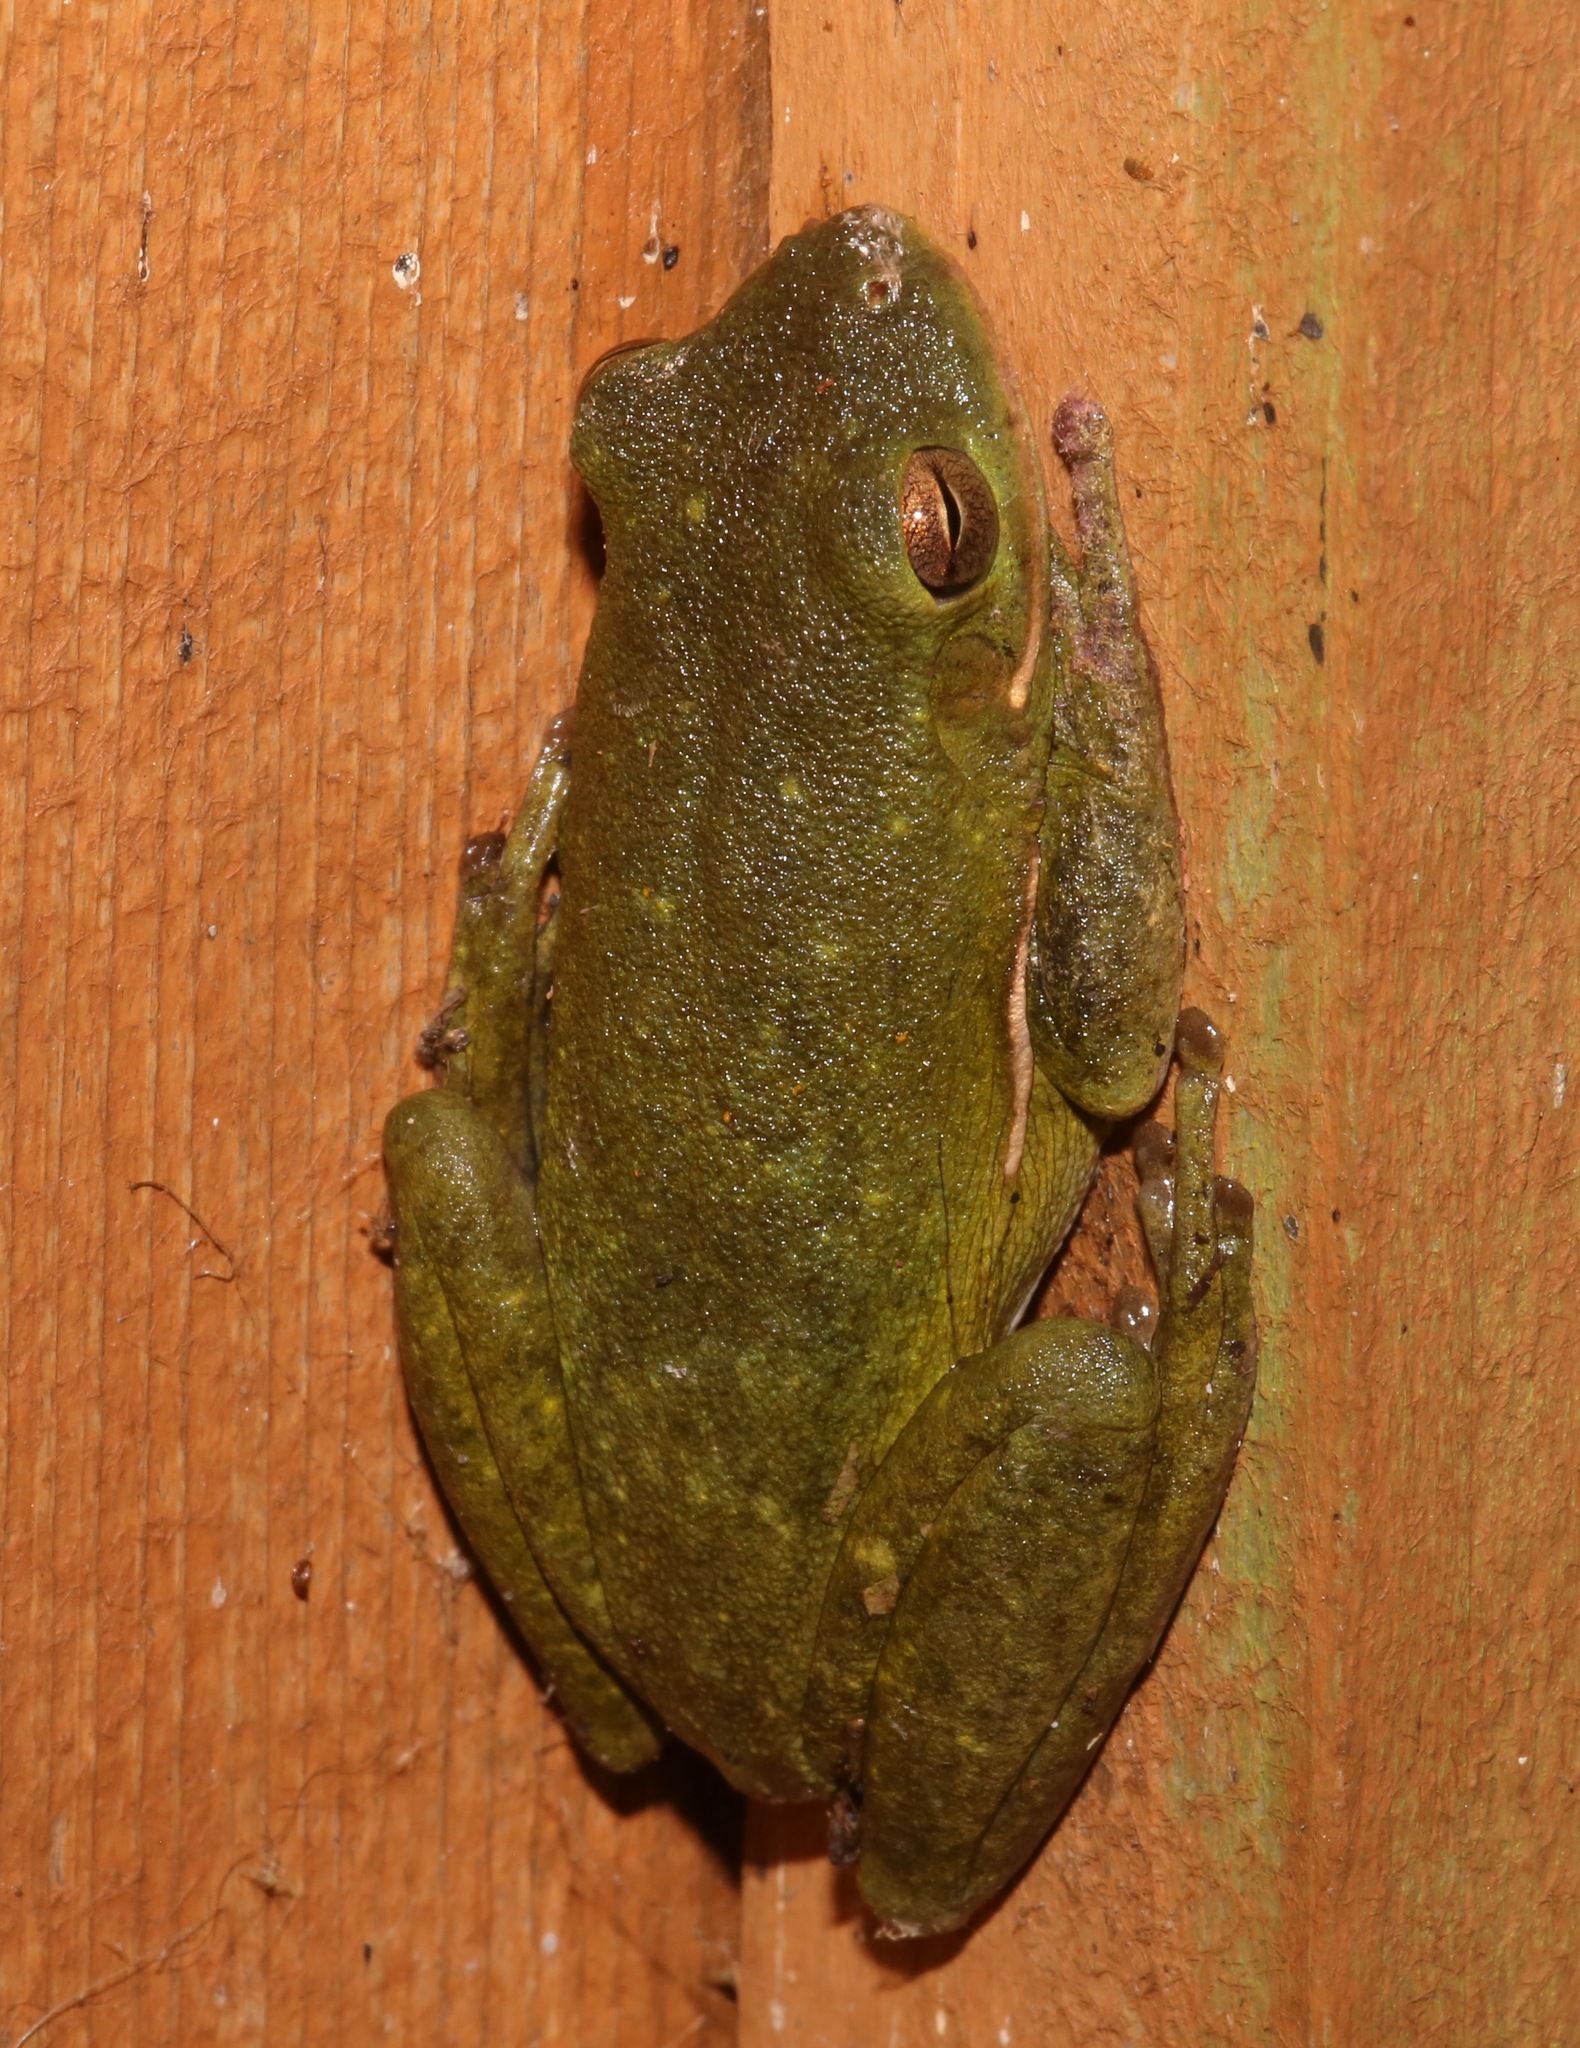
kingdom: Animalia
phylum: Chordata
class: Amphibia
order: Anura
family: Hylidae
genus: Hyla
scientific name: Hyla
